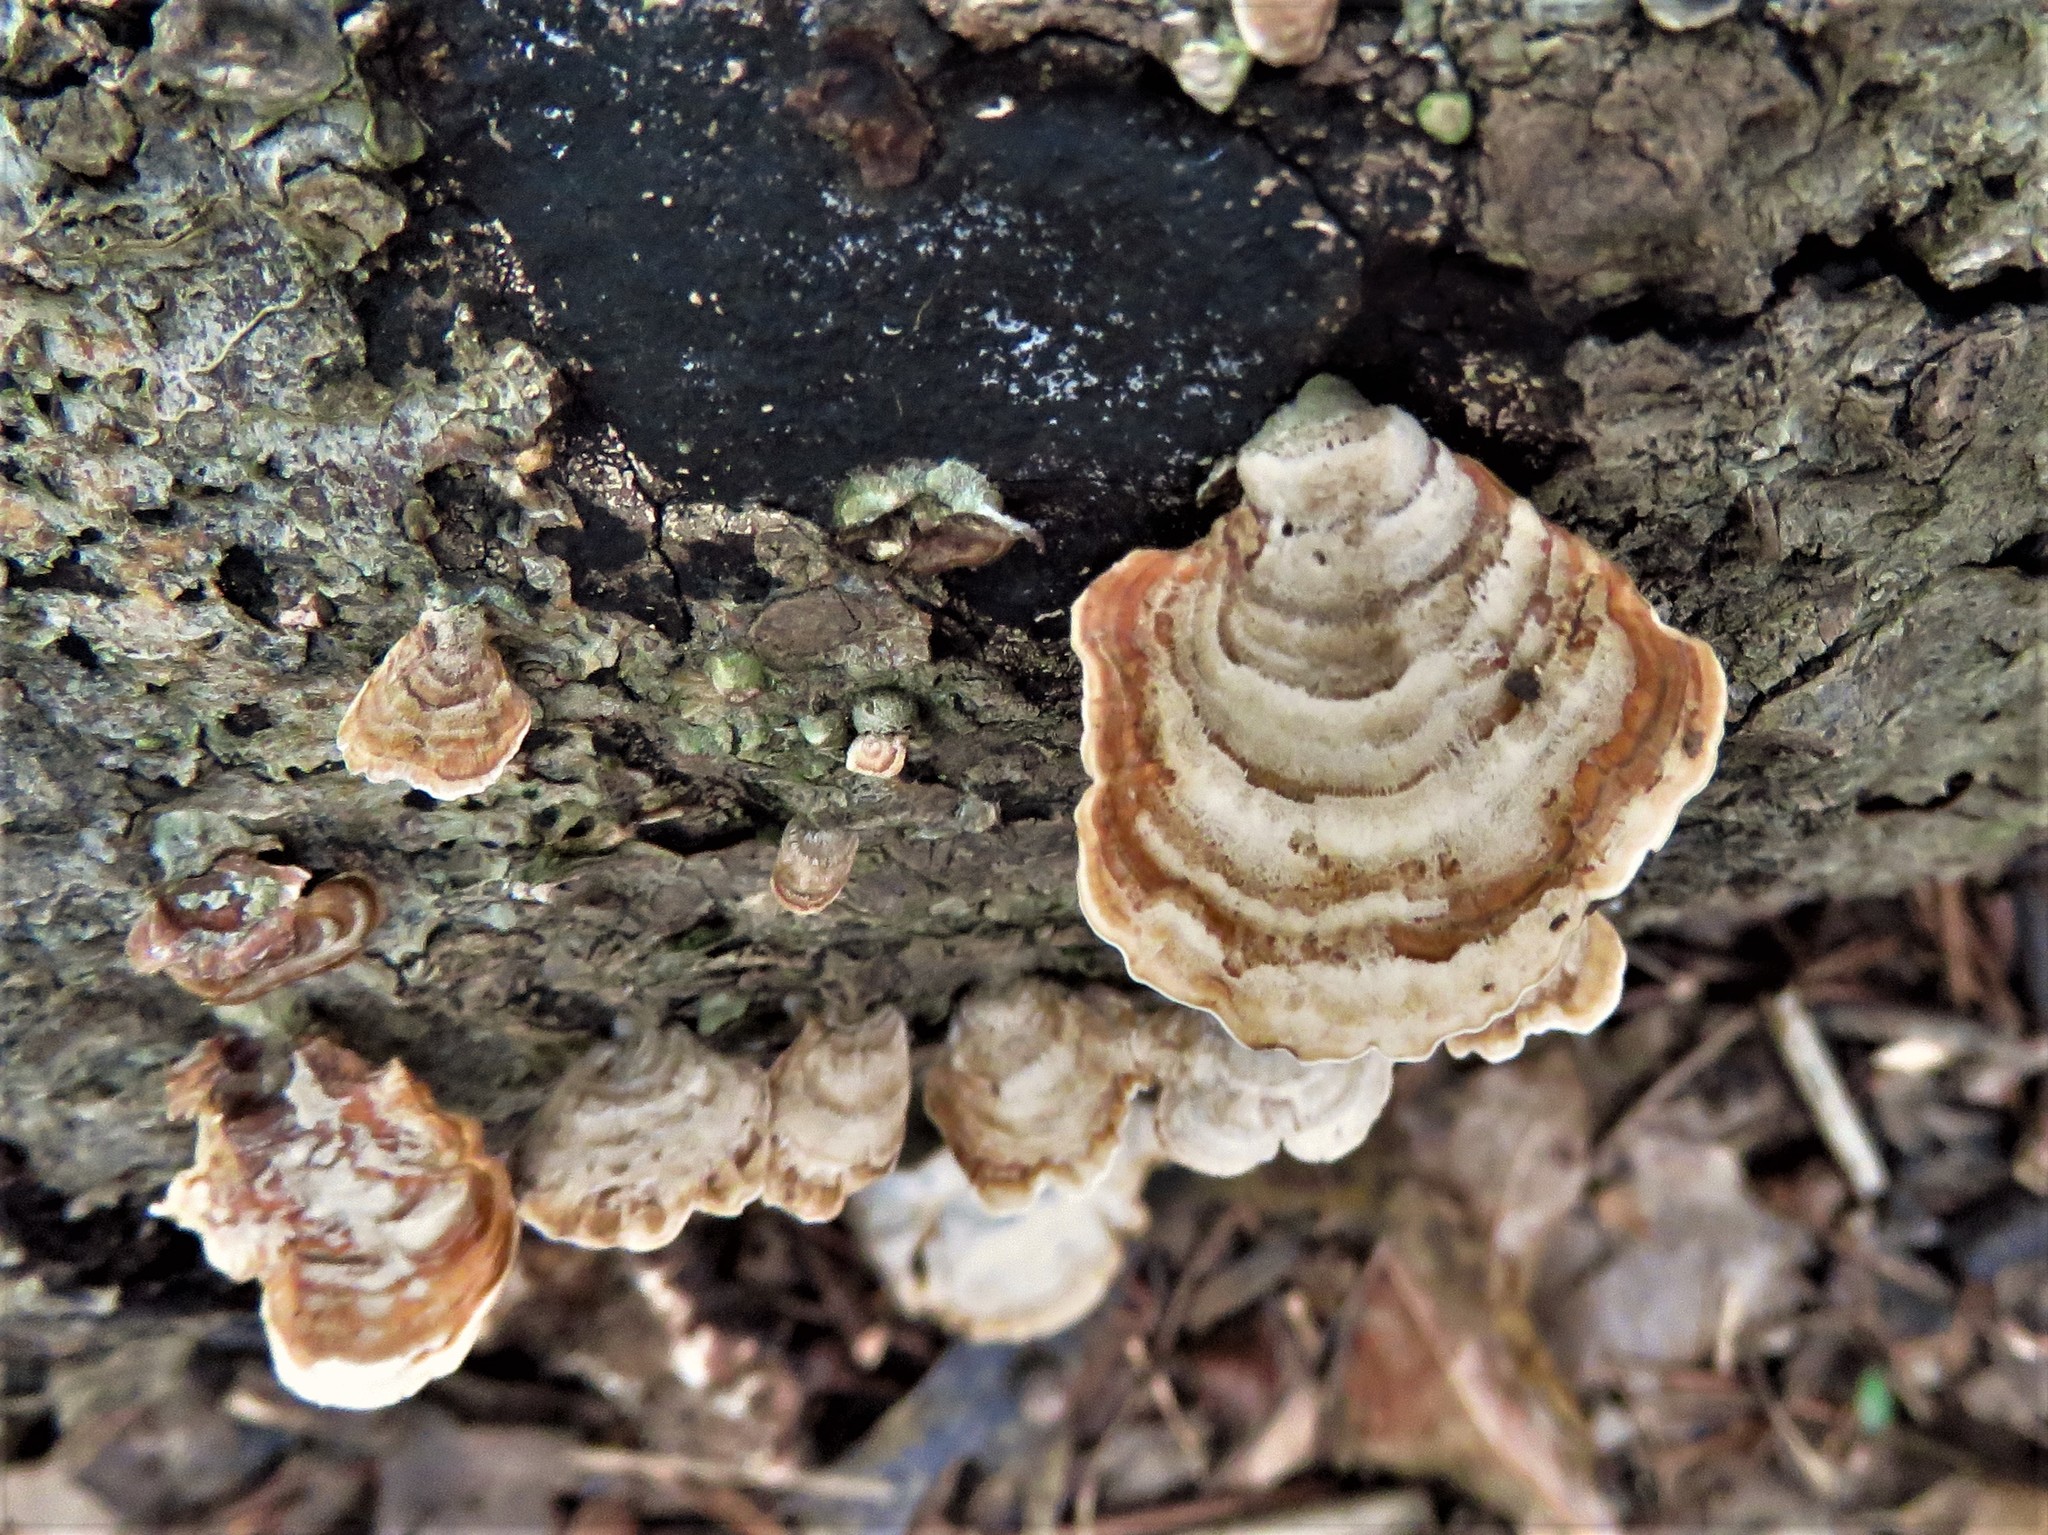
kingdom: Fungi
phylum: Basidiomycota
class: Agaricomycetes
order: Russulales
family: Stereaceae
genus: Stereum
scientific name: Stereum ostrea
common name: False turkeytail
